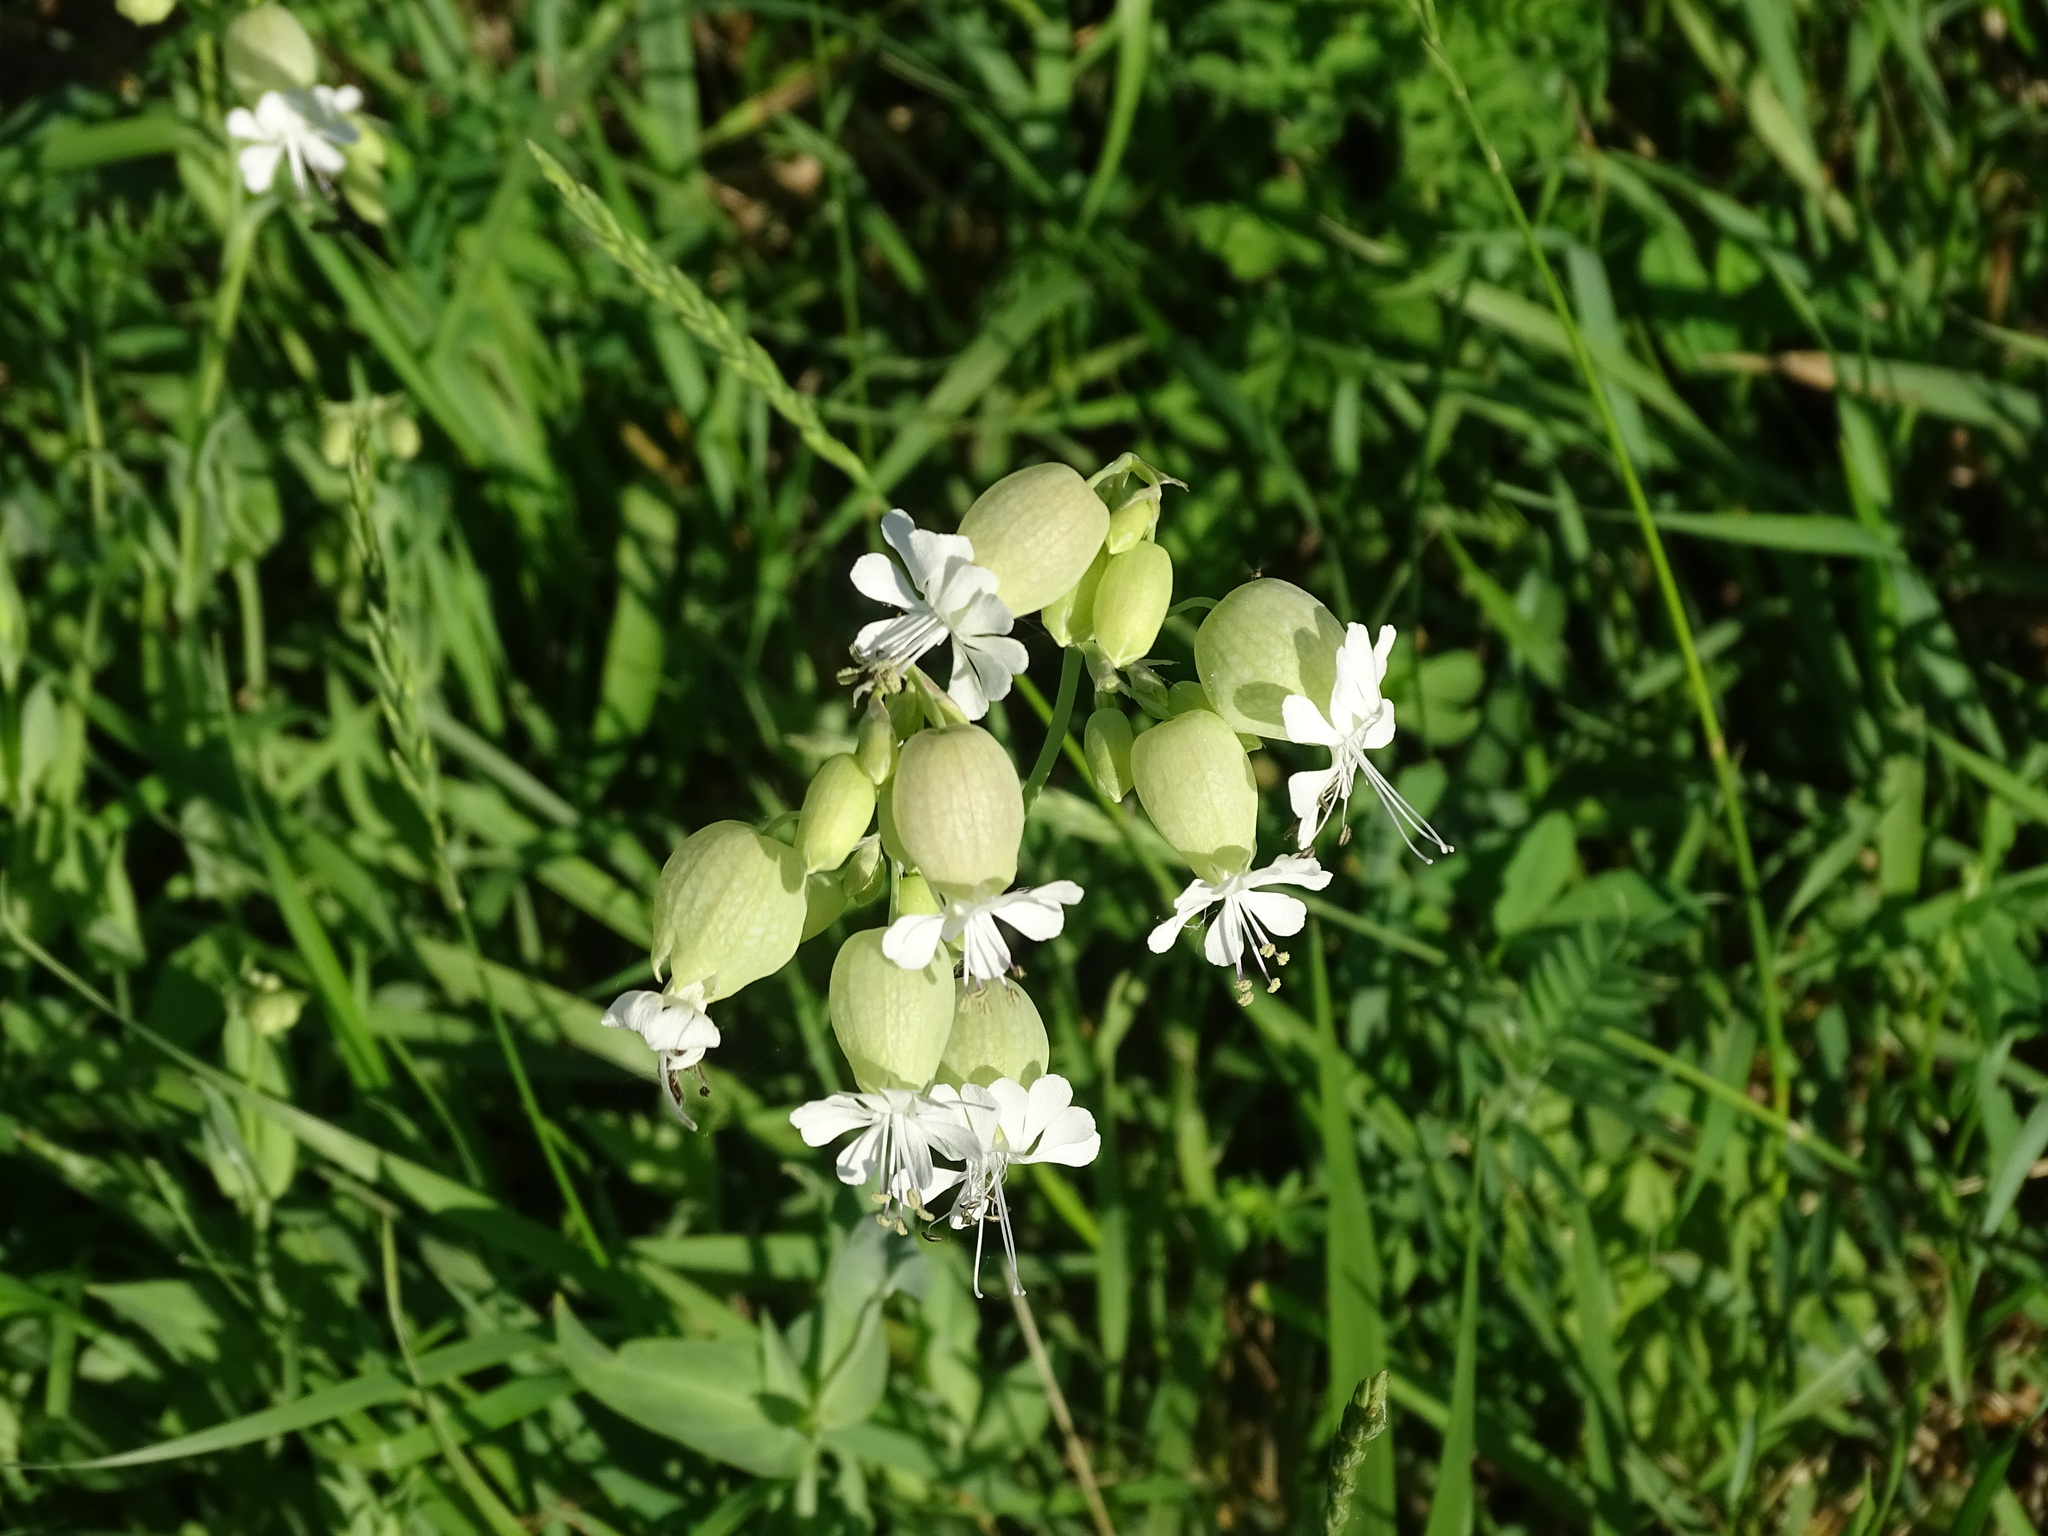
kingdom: Plantae
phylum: Tracheophyta
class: Magnoliopsida
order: Caryophyllales
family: Caryophyllaceae
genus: Silene
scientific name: Silene vulgaris
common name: Bladder campion
